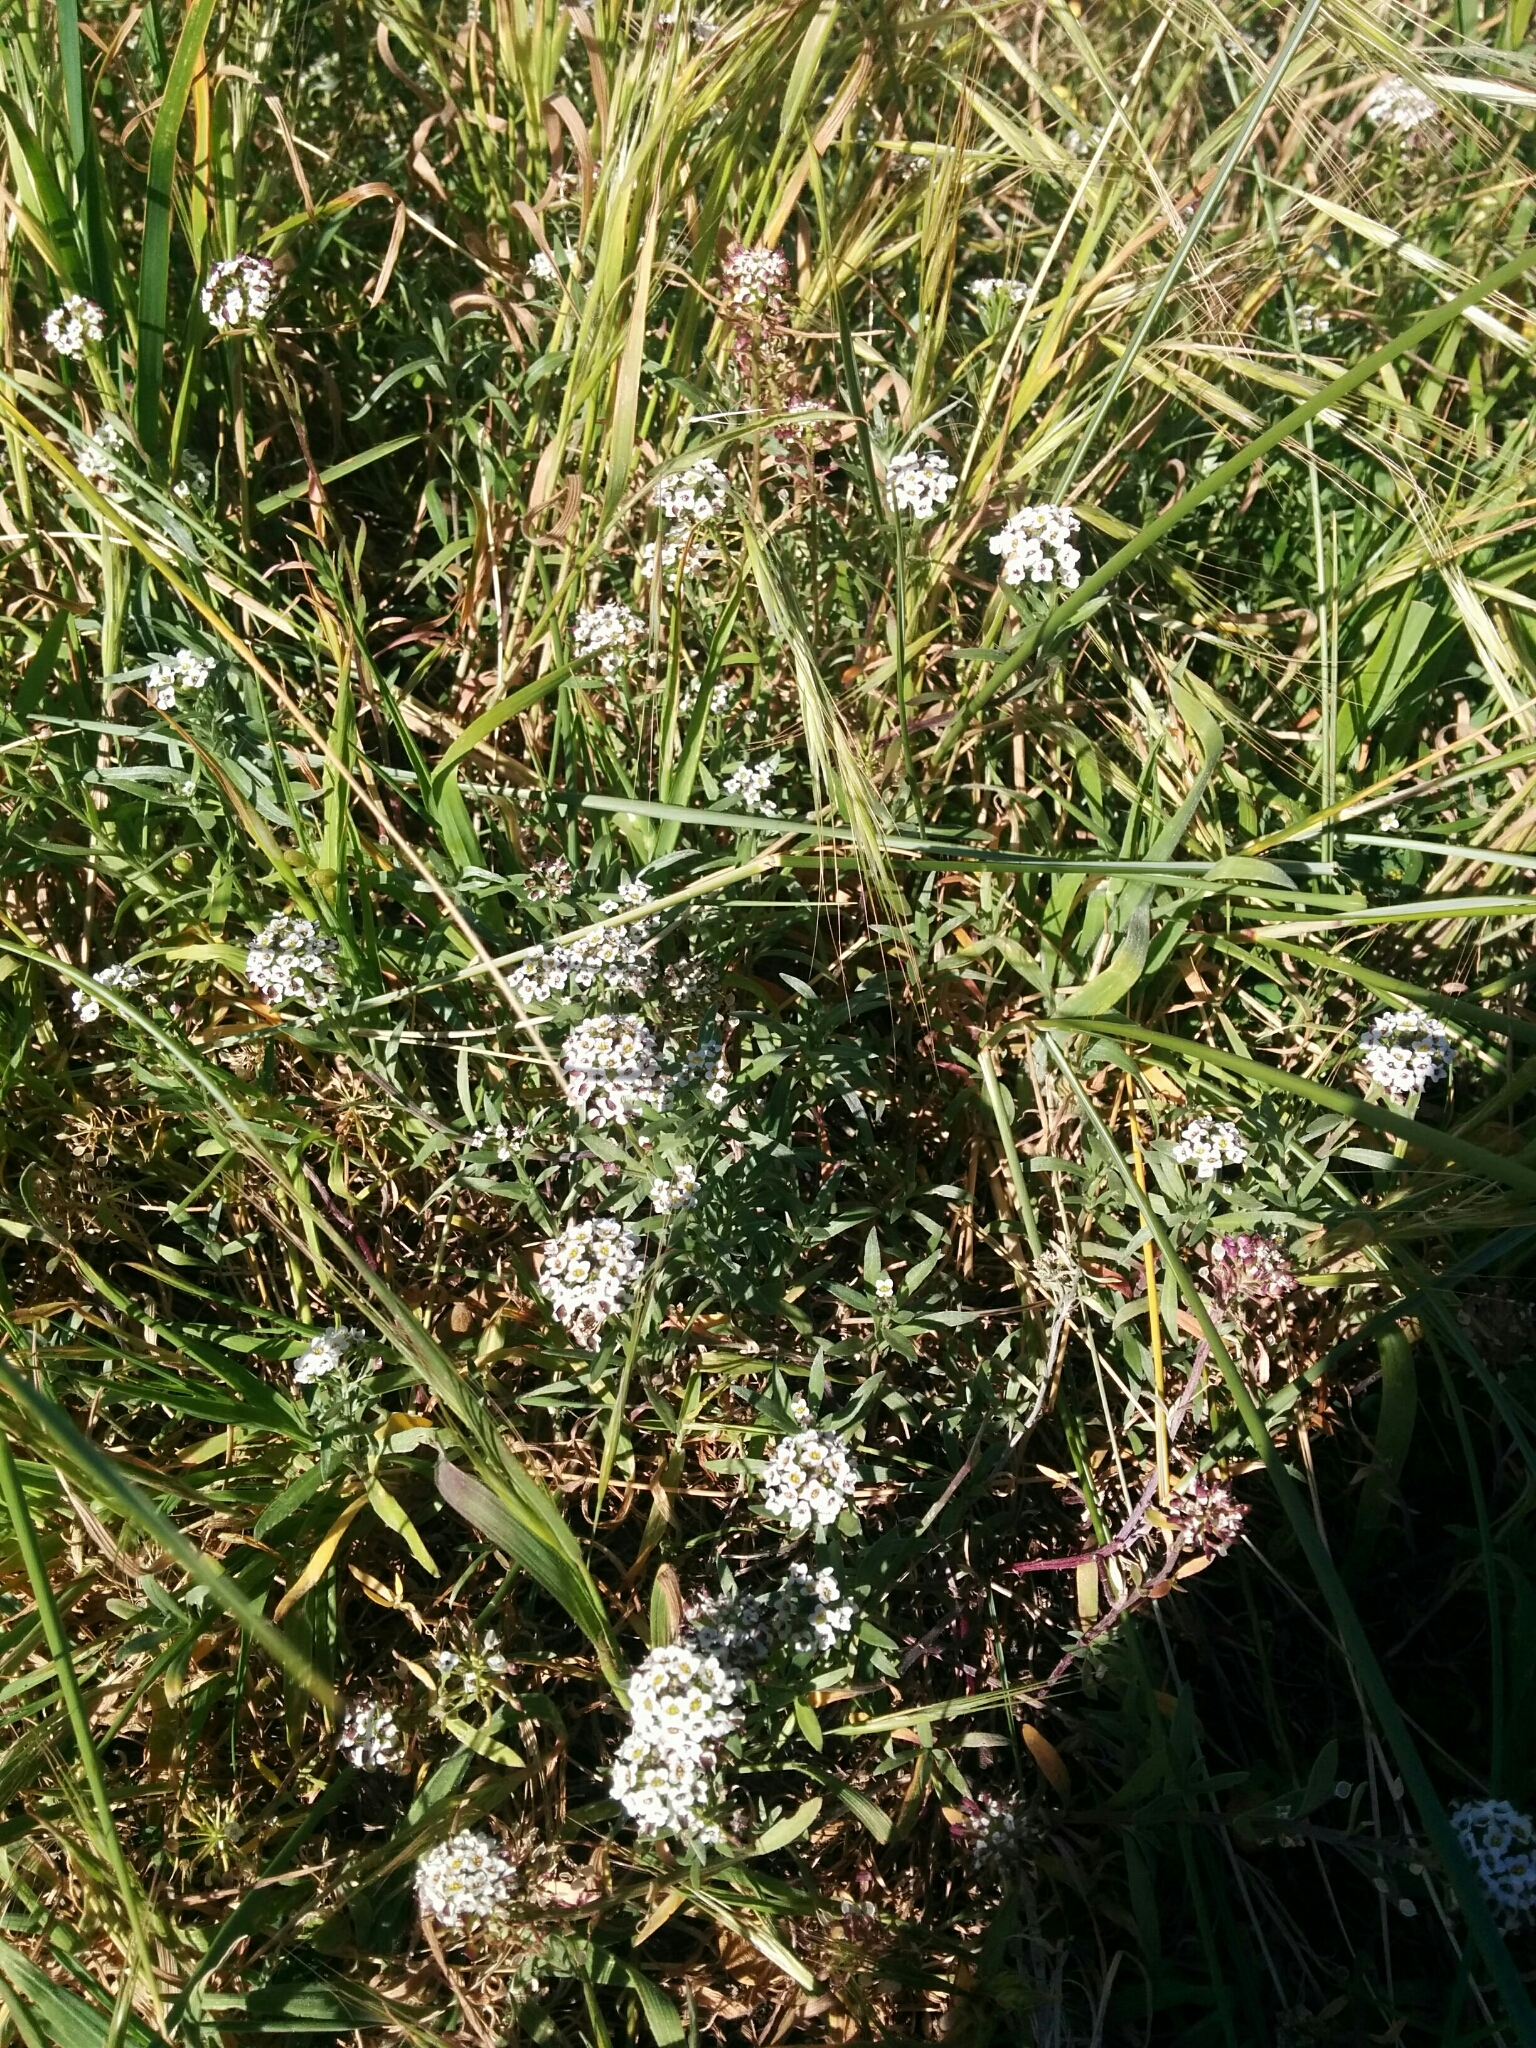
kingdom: Plantae
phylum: Tracheophyta
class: Magnoliopsida
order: Brassicales
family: Brassicaceae
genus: Lobularia
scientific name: Lobularia maritima
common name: Sweet alison
